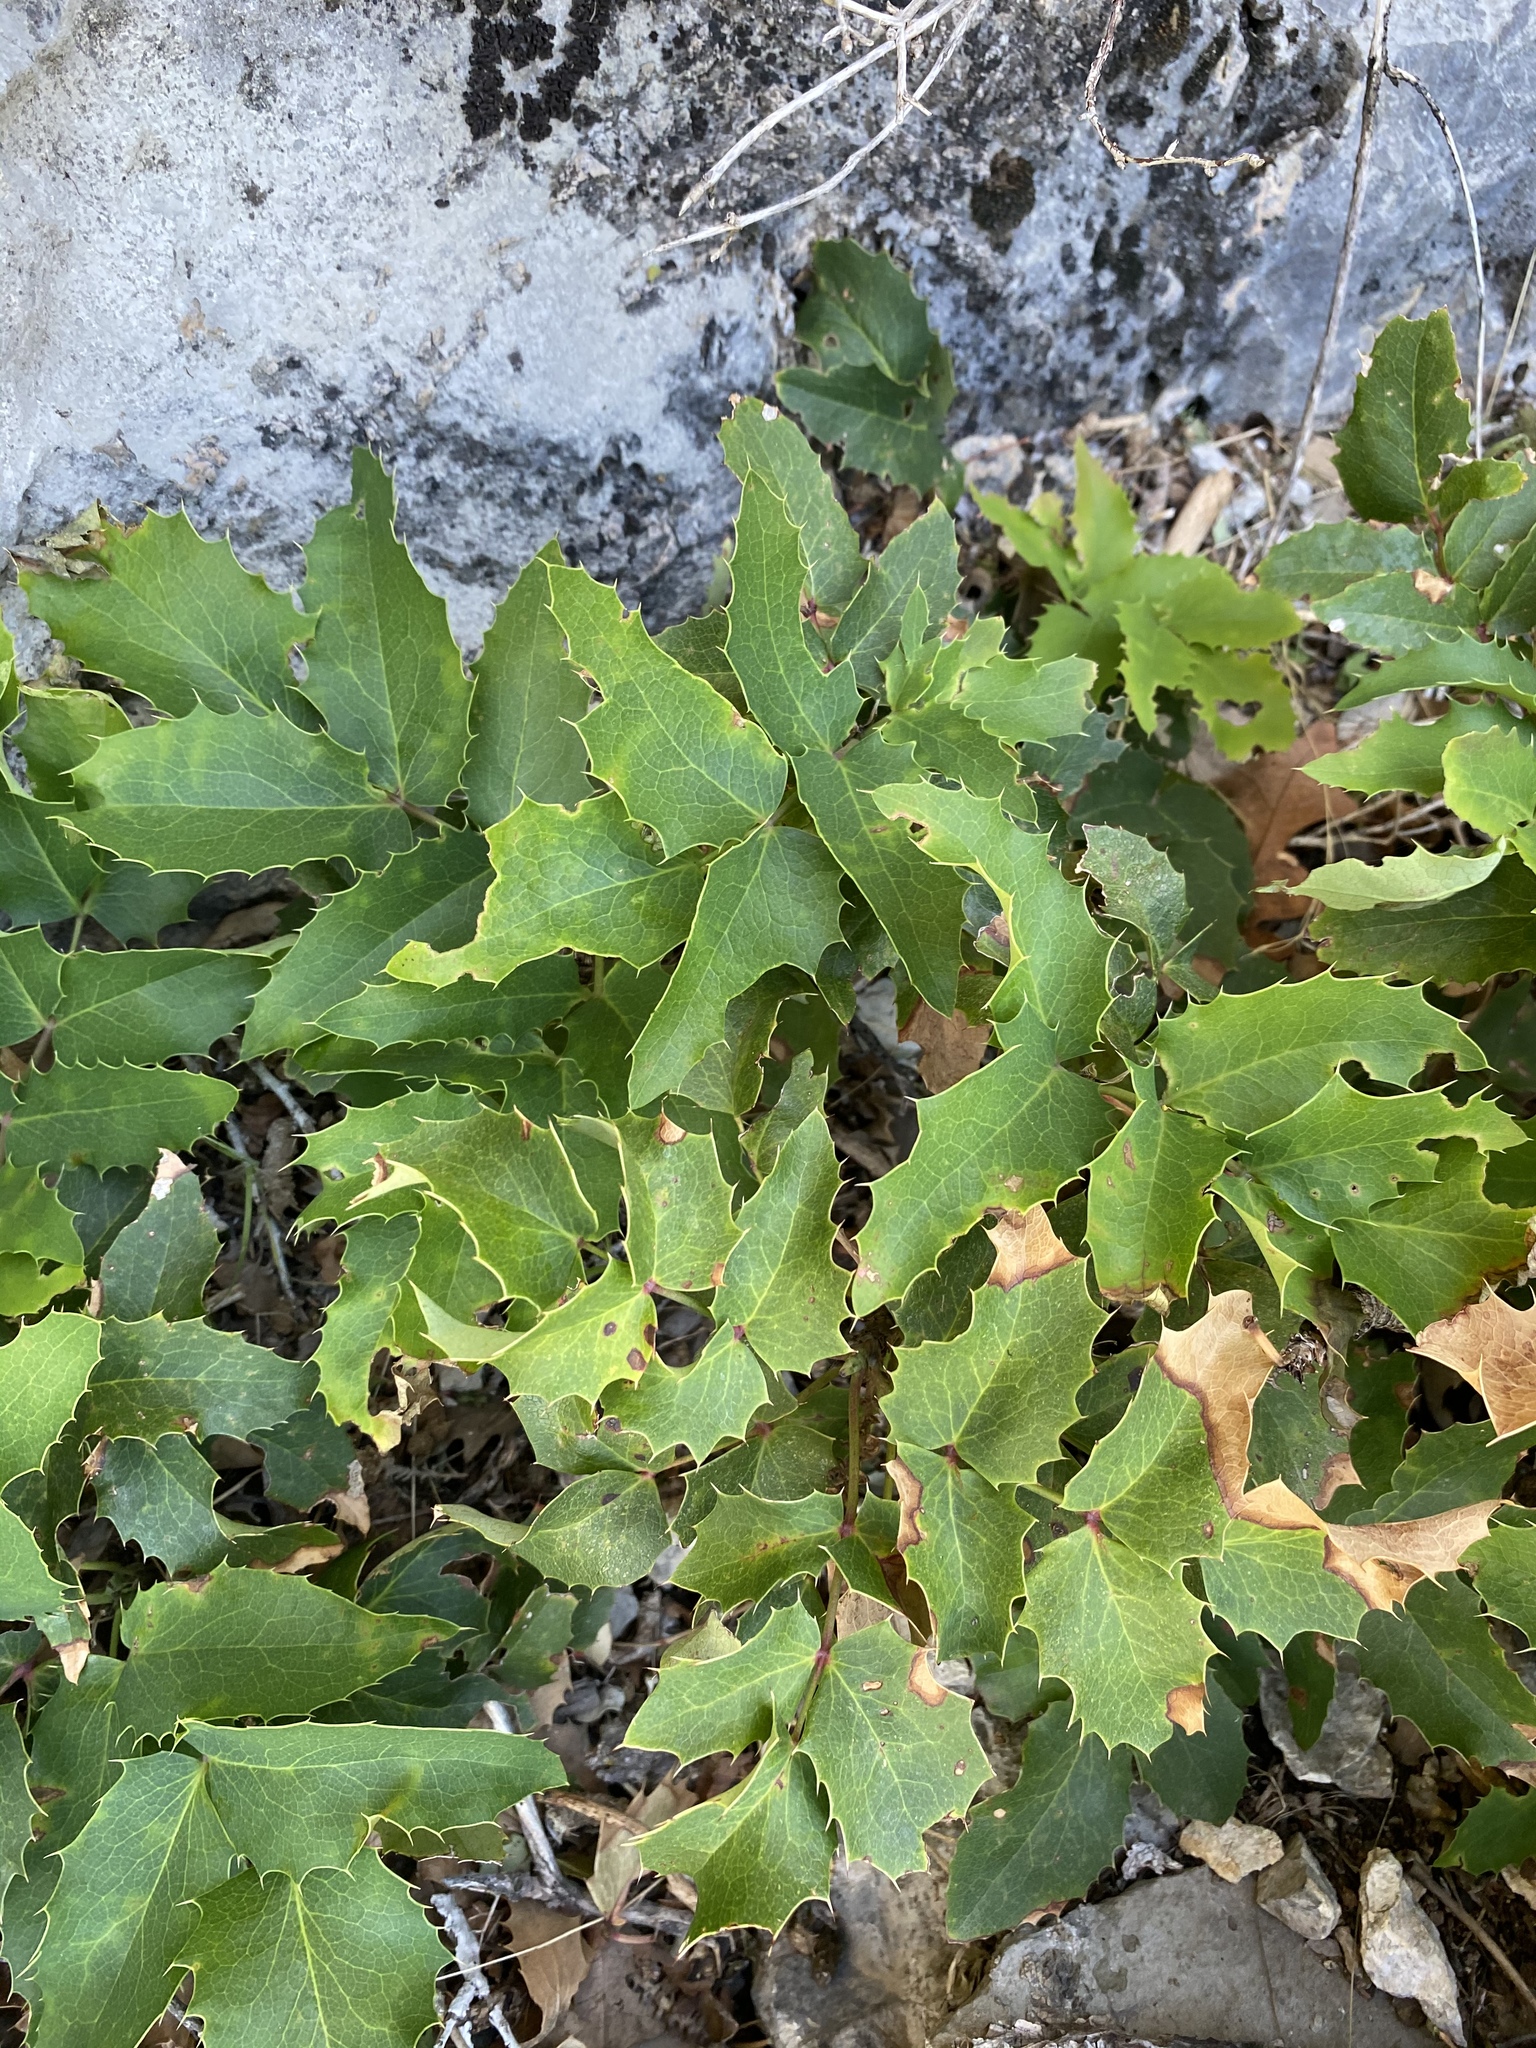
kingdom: Plantae
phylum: Tracheophyta
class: Magnoliopsida
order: Ranunculales
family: Berberidaceae
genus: Mahonia
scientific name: Mahonia repens
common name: Creeping oregon-grape
